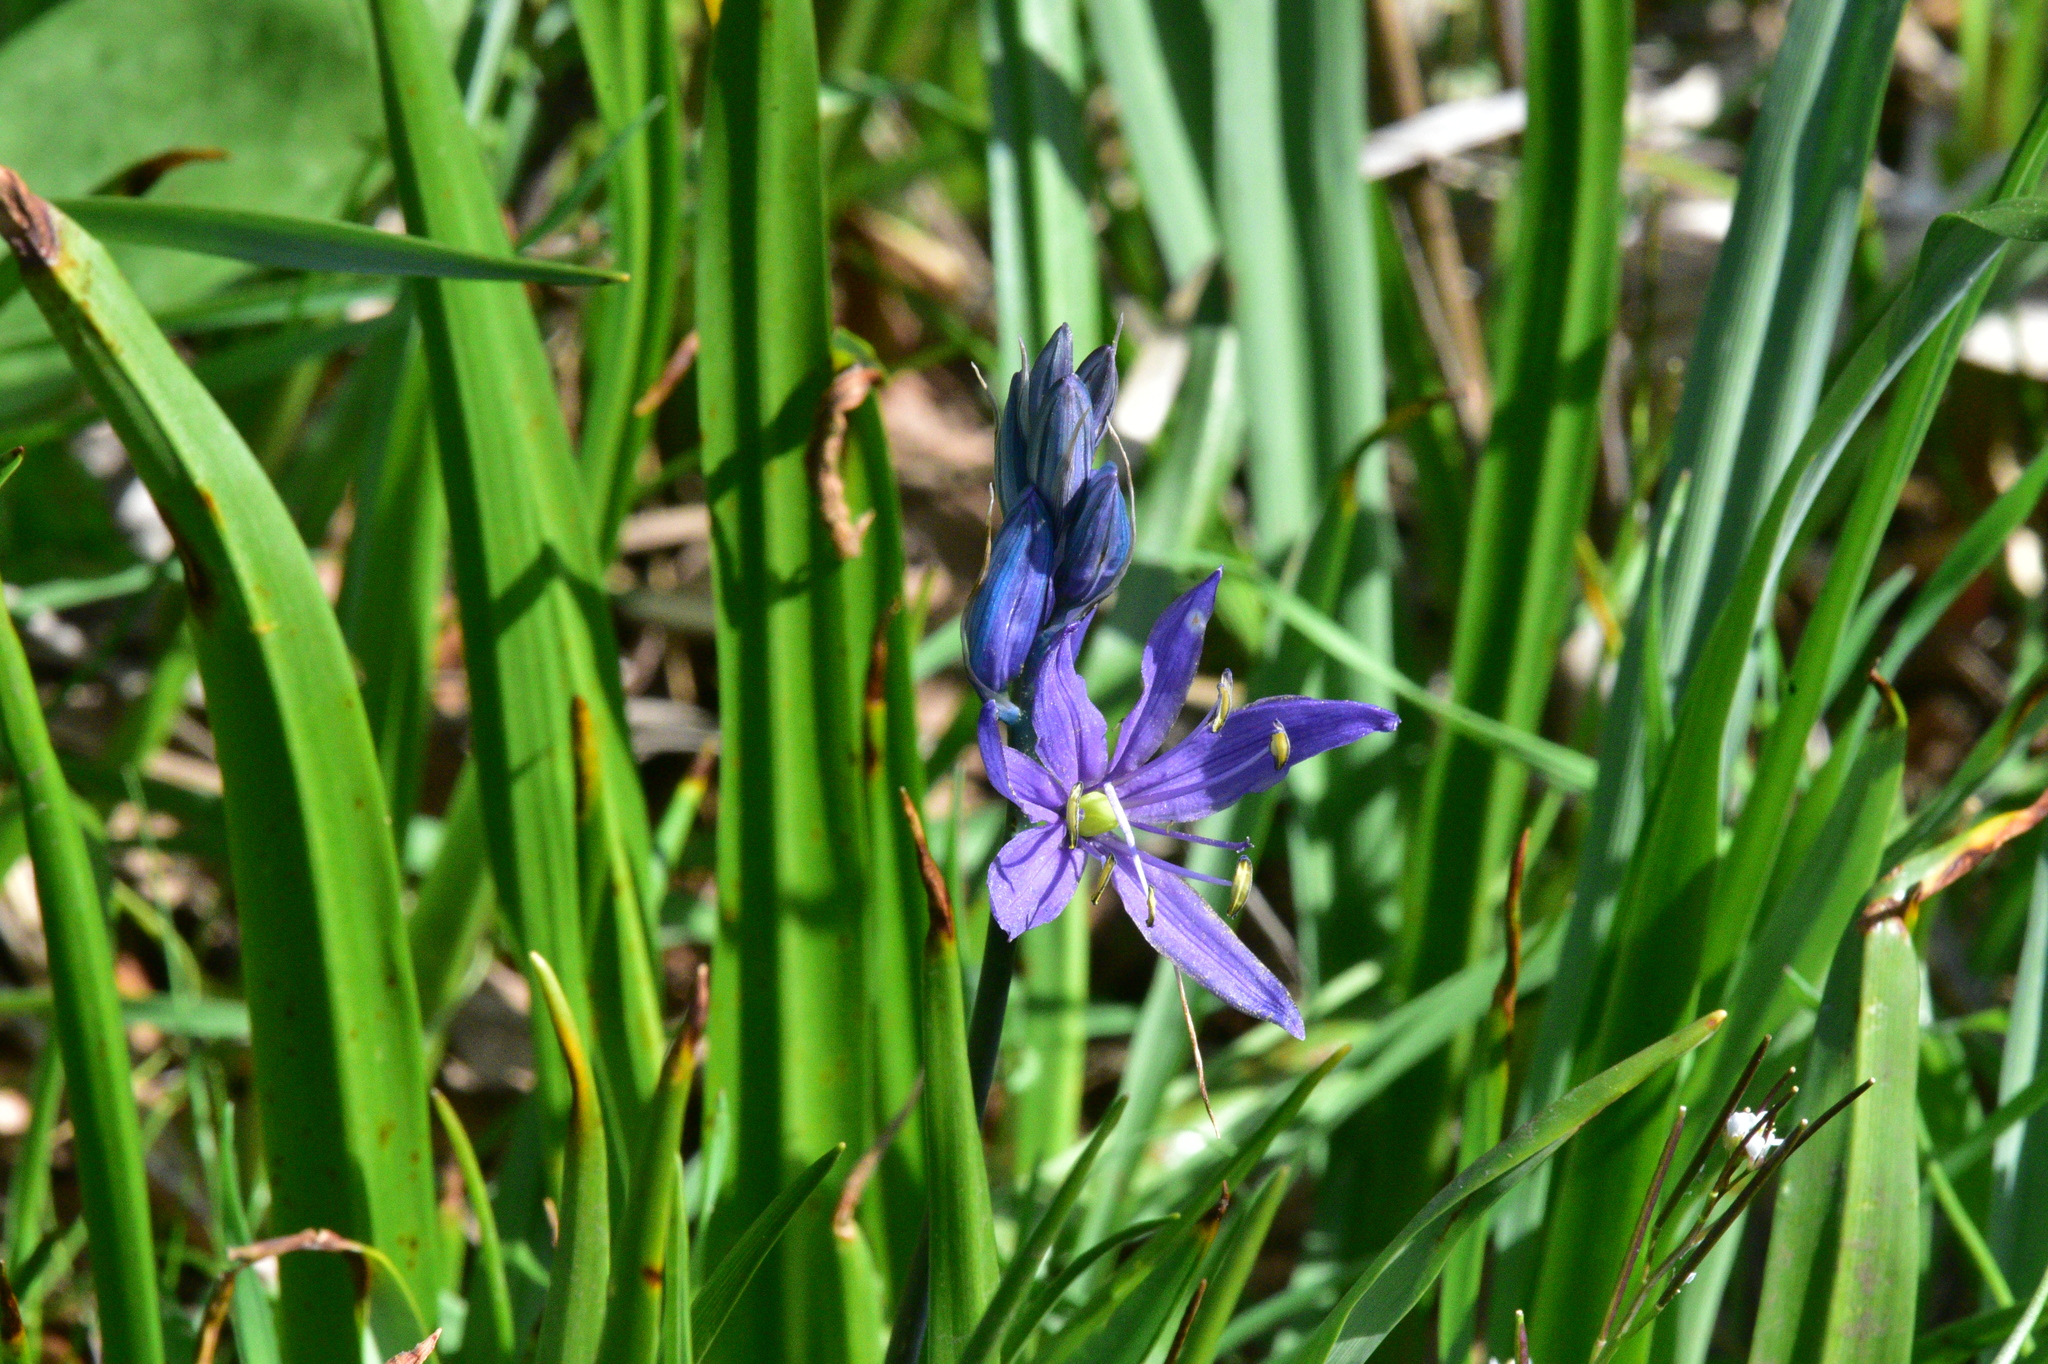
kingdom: Plantae
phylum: Tracheophyta
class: Liliopsida
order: Asparagales
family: Asparagaceae
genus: Camassia
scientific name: Camassia quamash
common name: Common camas
